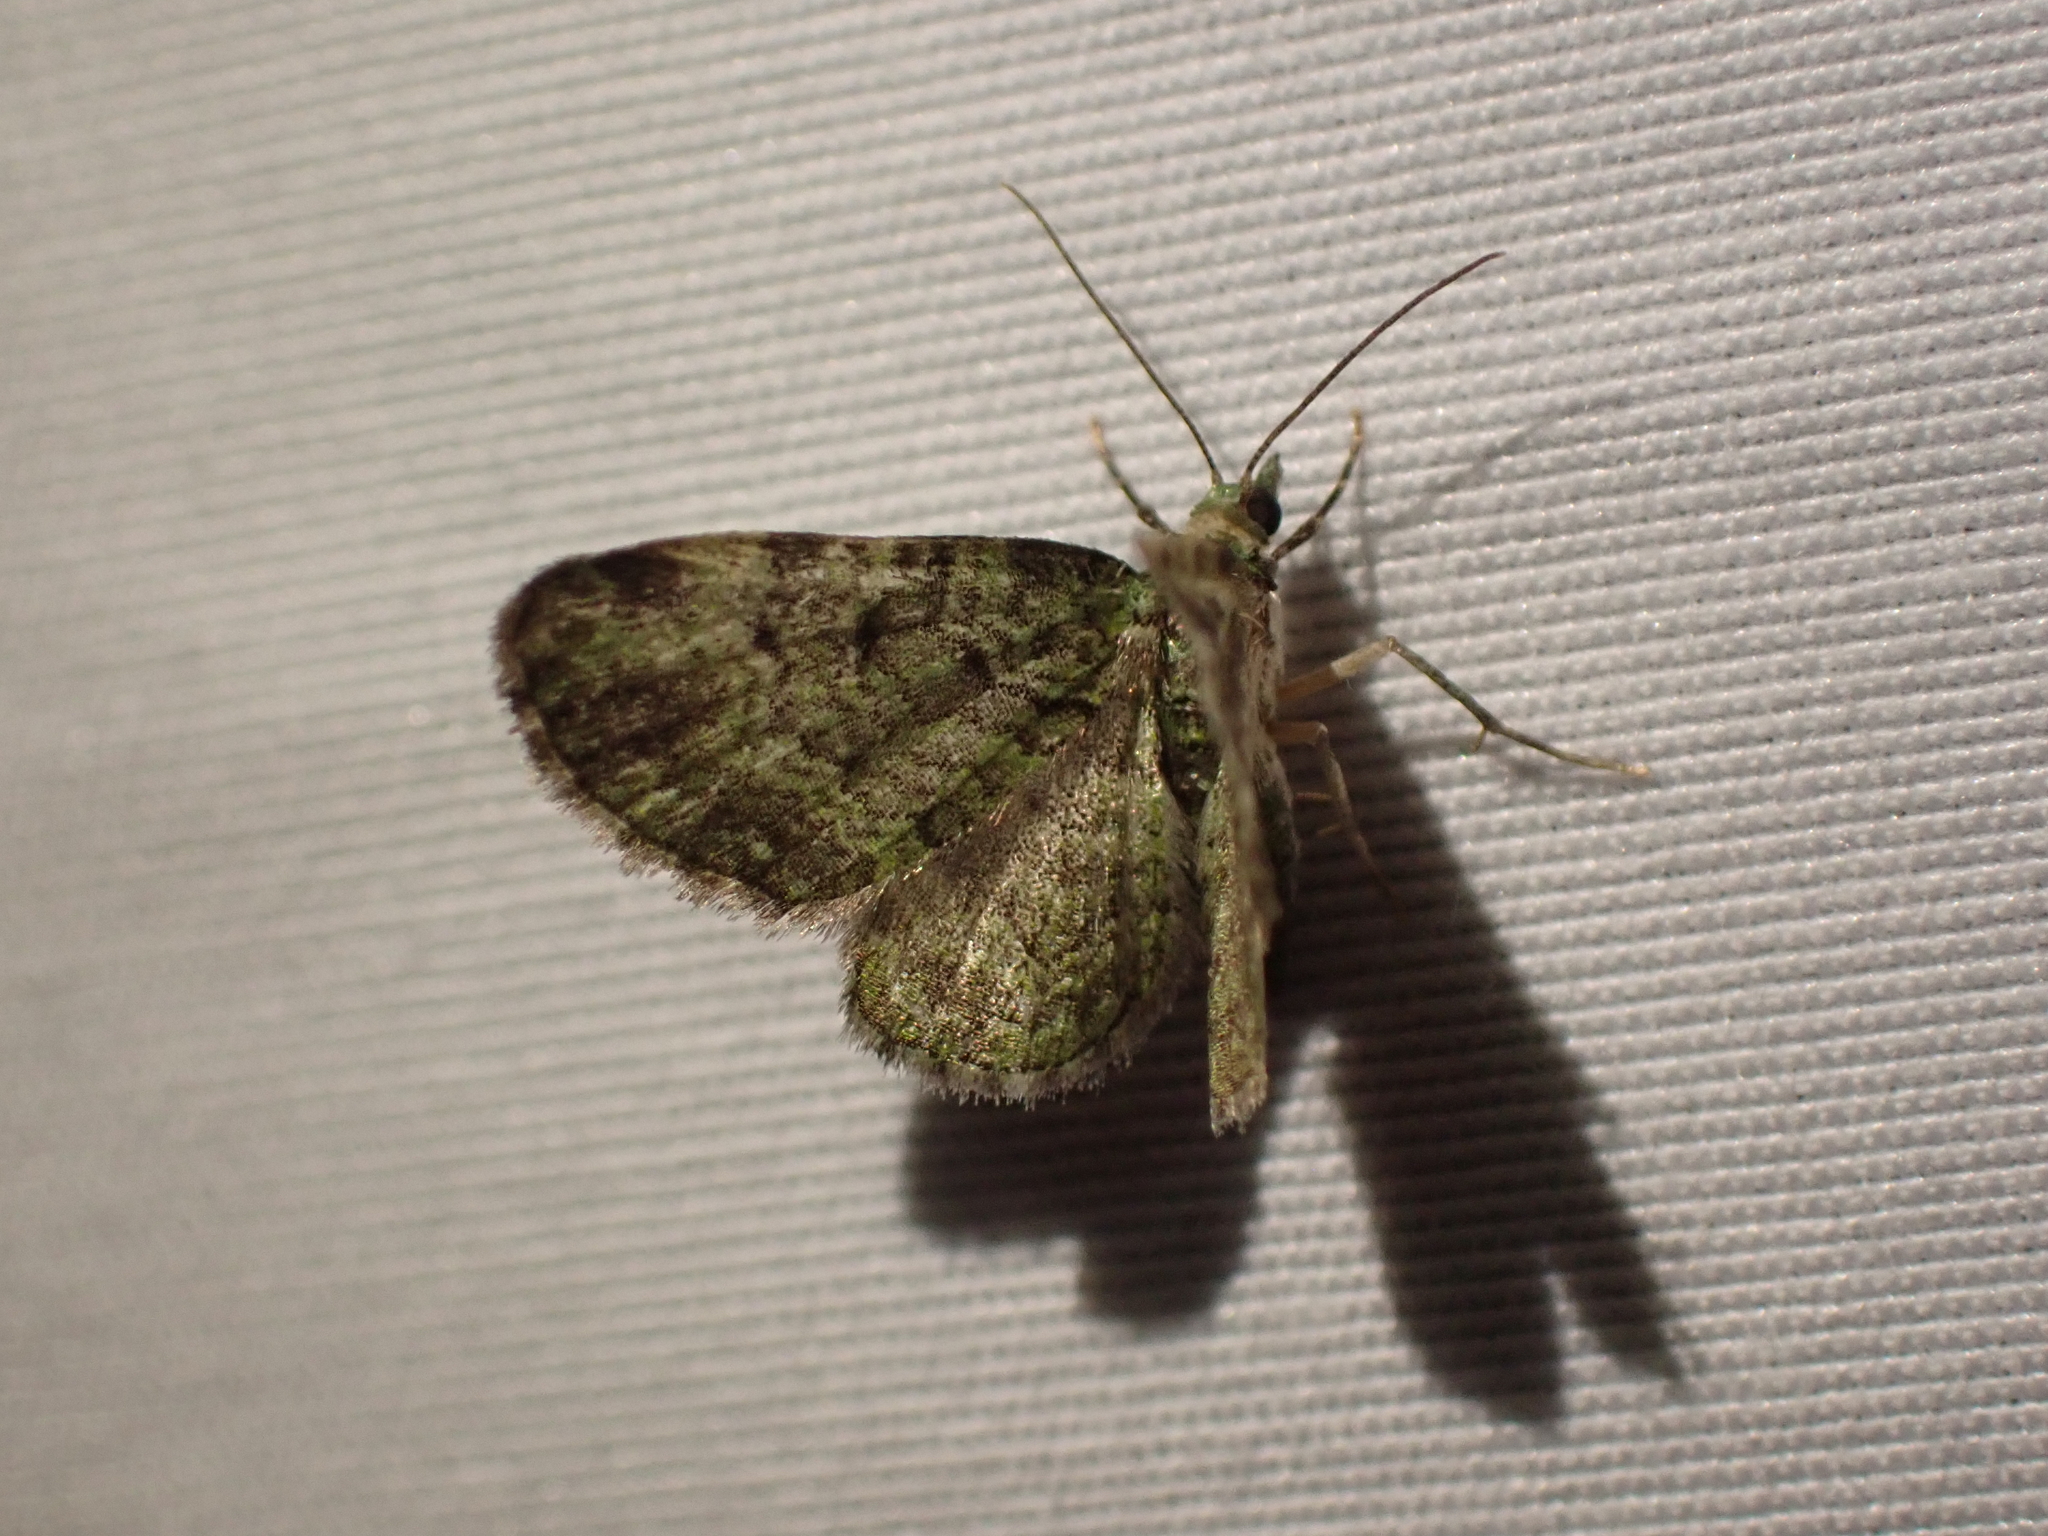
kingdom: Animalia
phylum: Arthropoda
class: Insecta
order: Lepidoptera
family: Geometridae
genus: Pasiphila
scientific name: Pasiphila rectangulata
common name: Green pug
